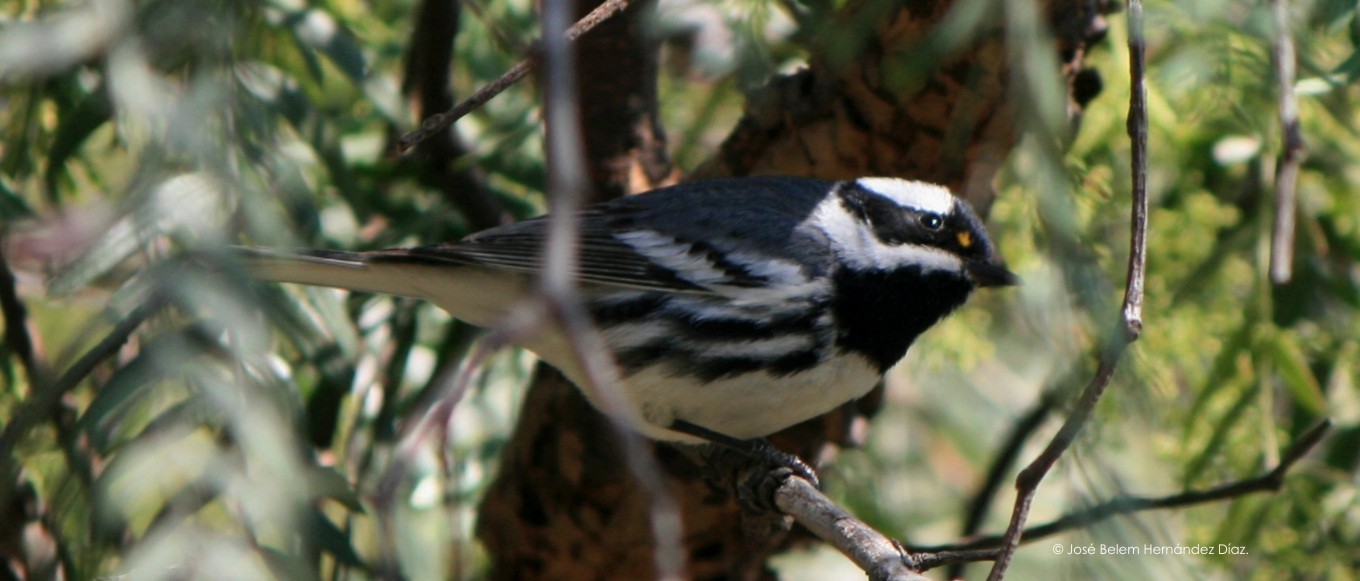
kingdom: Animalia
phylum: Chordata
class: Aves
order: Passeriformes
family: Parulidae
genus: Setophaga
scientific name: Setophaga nigrescens
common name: Black-throated gray warbler
